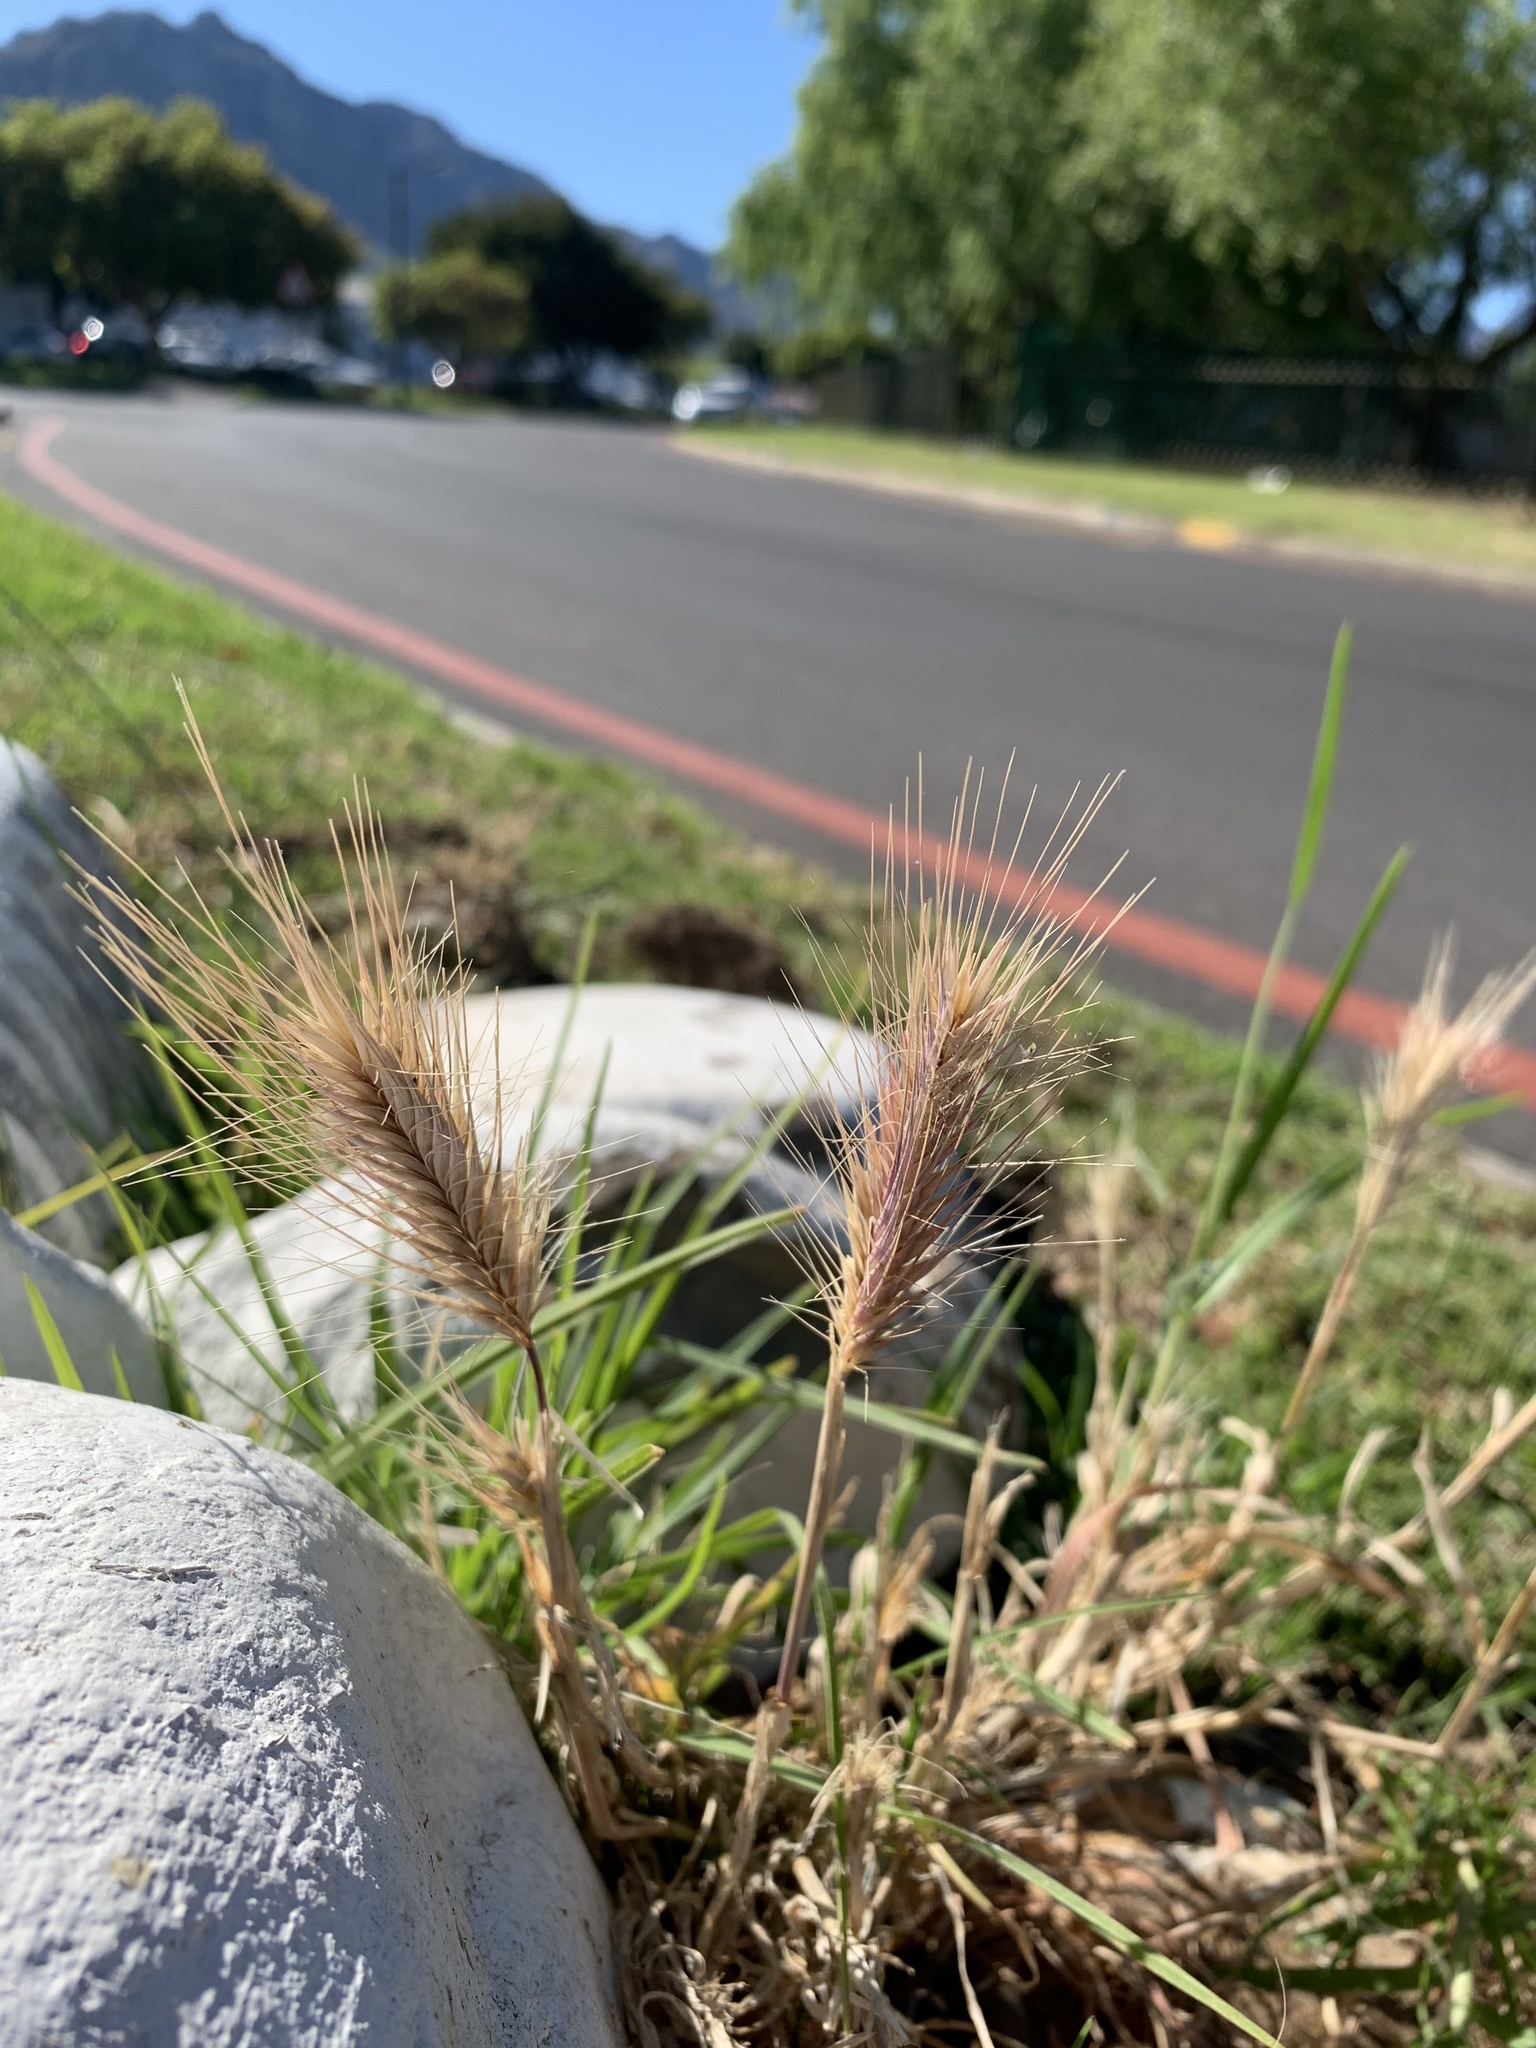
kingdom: Plantae
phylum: Tracheophyta
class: Liliopsida
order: Poales
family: Poaceae
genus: Hordeum
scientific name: Hordeum murinum
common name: Wall barley
